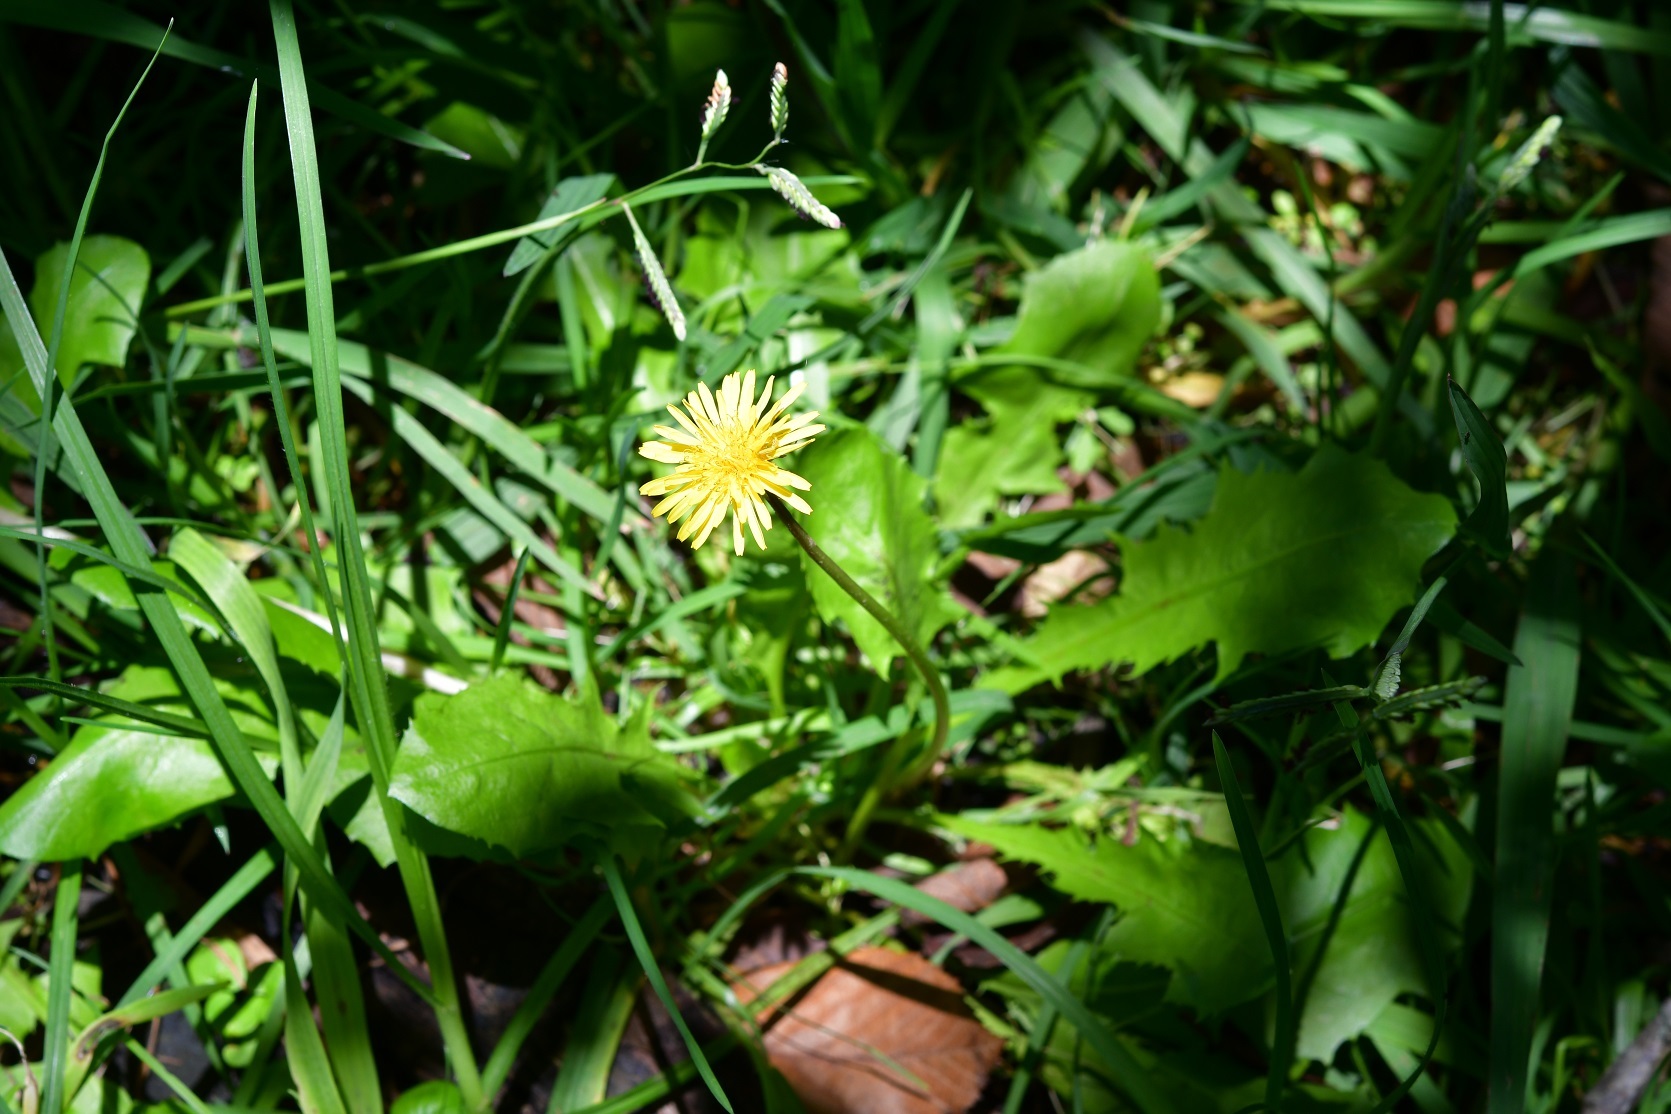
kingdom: Plantae
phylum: Tracheophyta
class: Magnoliopsida
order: Asterales
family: Asteraceae
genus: Taraxacum
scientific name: Taraxacum officinale
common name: Common dandelion
